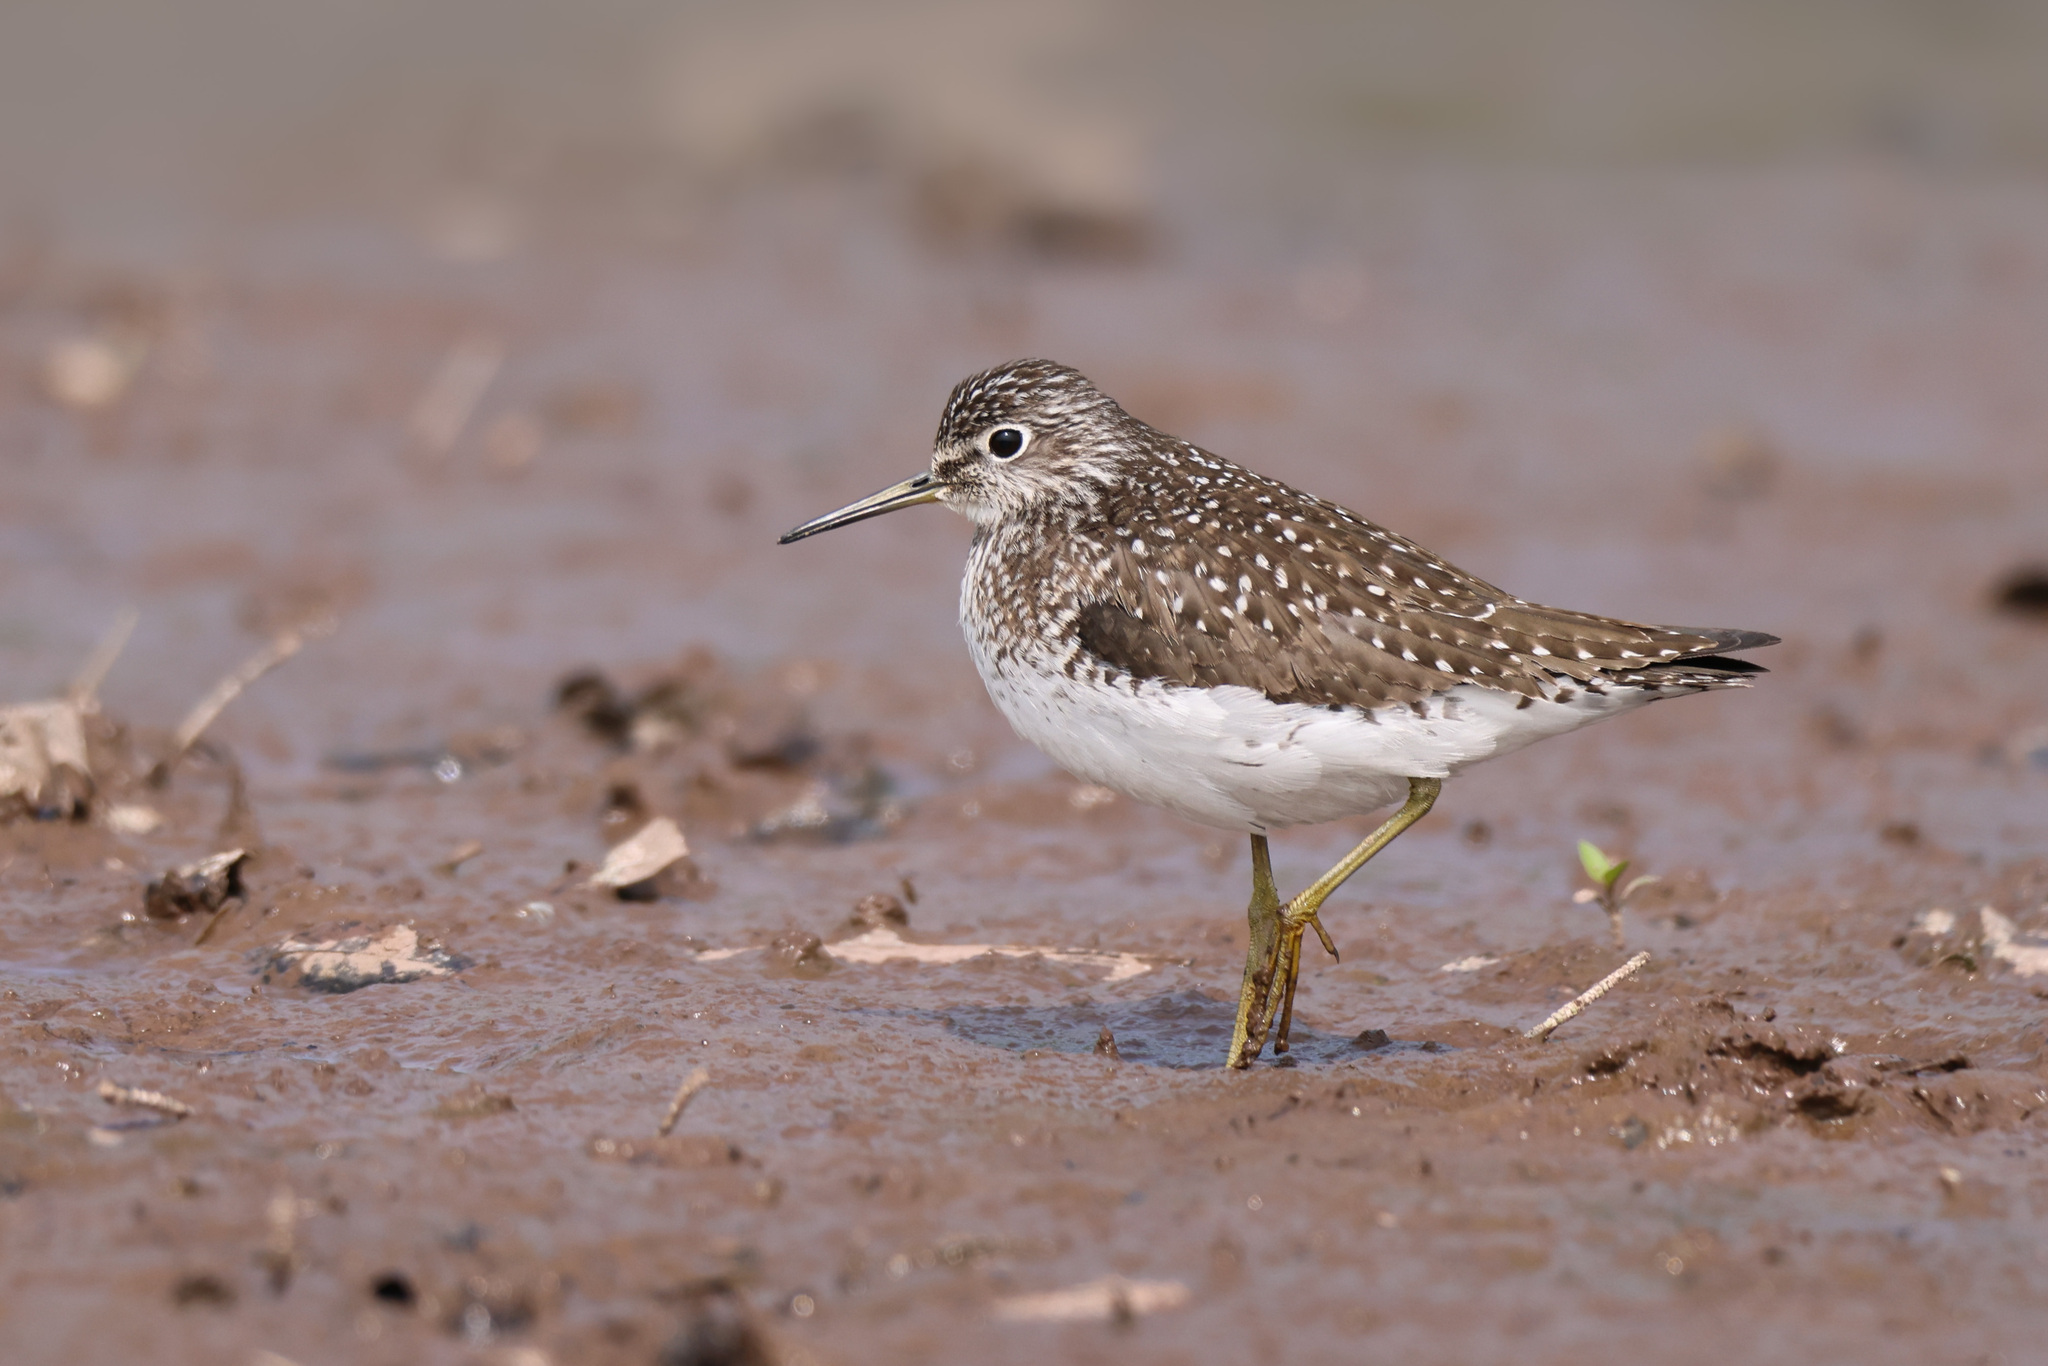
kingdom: Animalia
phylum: Chordata
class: Aves
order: Charadriiformes
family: Scolopacidae
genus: Tringa
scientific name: Tringa solitaria
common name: Solitary sandpiper
